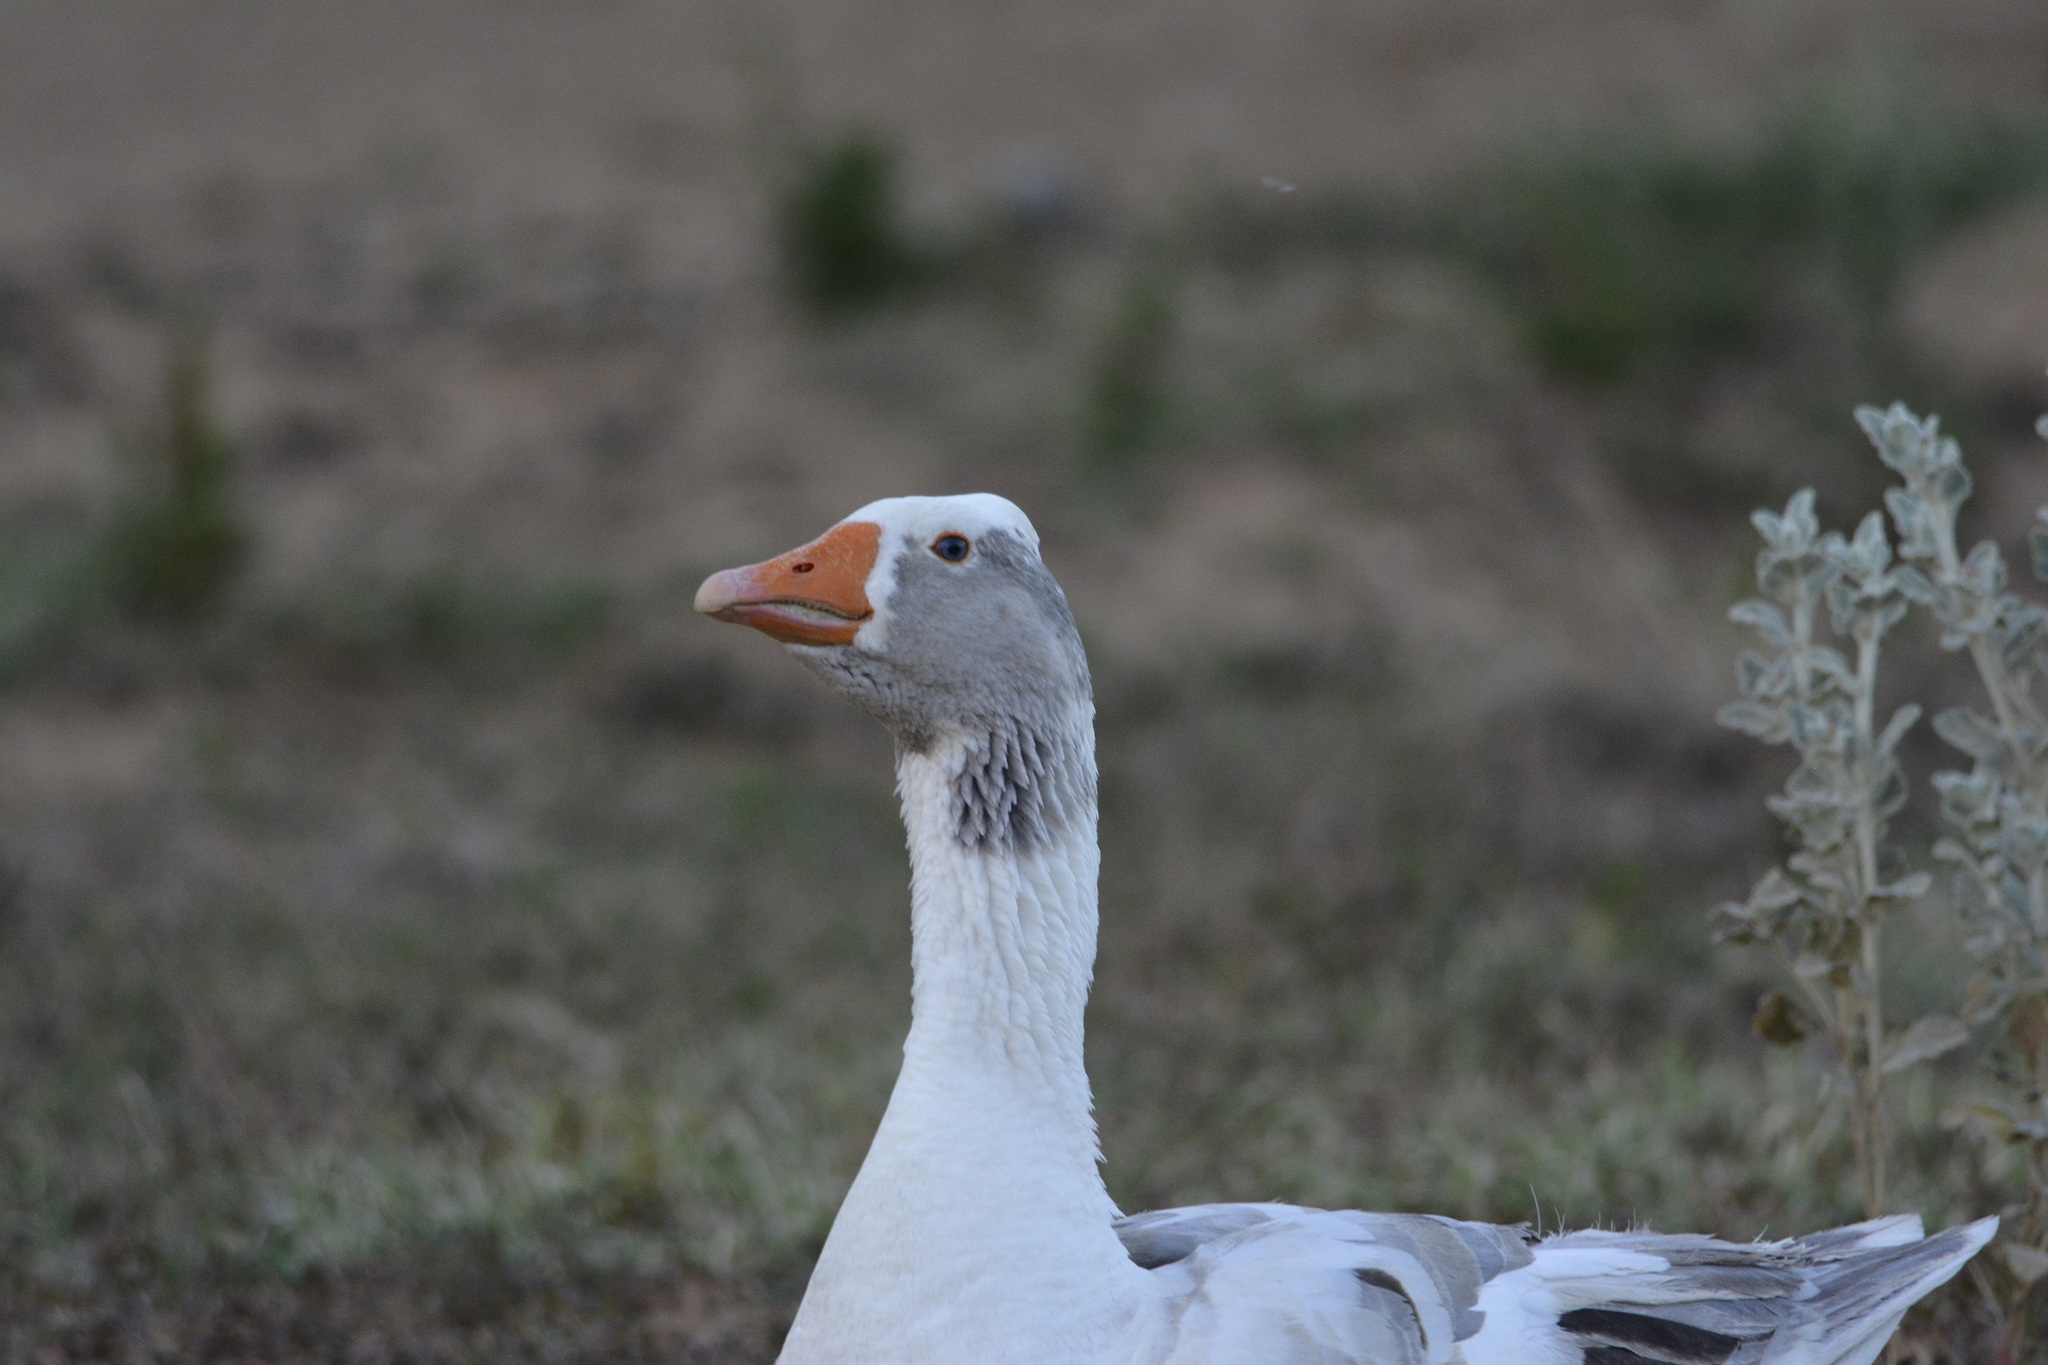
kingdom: Animalia
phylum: Chordata
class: Aves
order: Anseriformes
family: Anatidae
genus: Anser
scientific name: Anser anser
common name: Greylag goose
